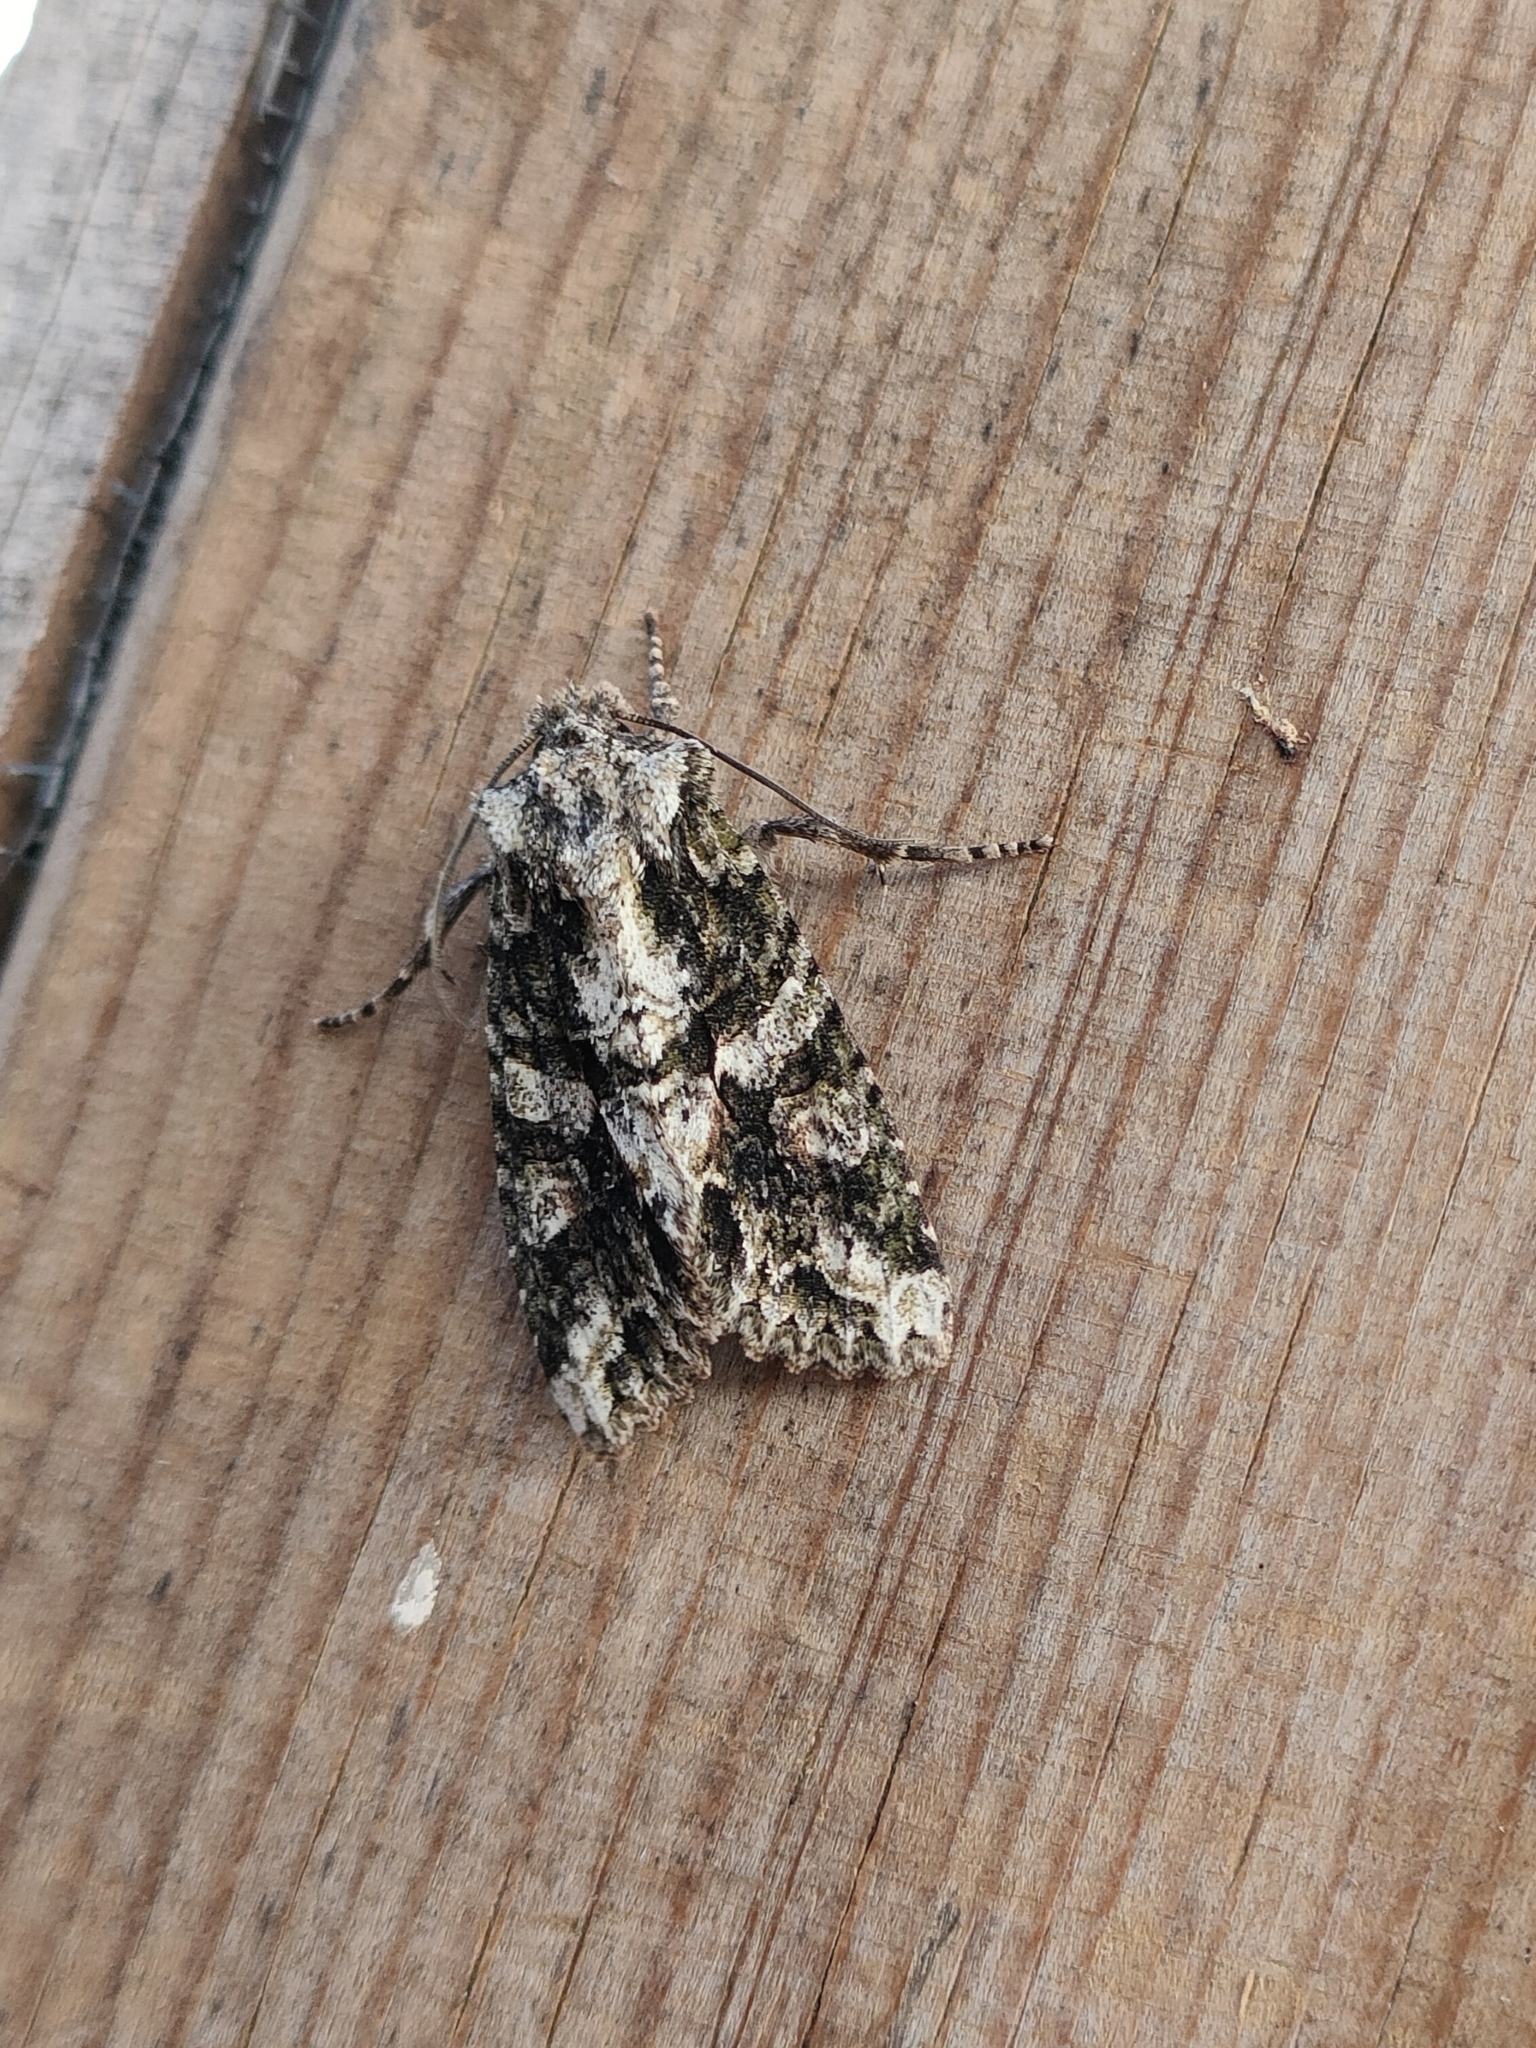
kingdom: Animalia
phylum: Arthropoda
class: Insecta
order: Lepidoptera
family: Noctuidae
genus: Dryobotodes
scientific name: Dryobotodes tenebrosa
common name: Sombre brocade
